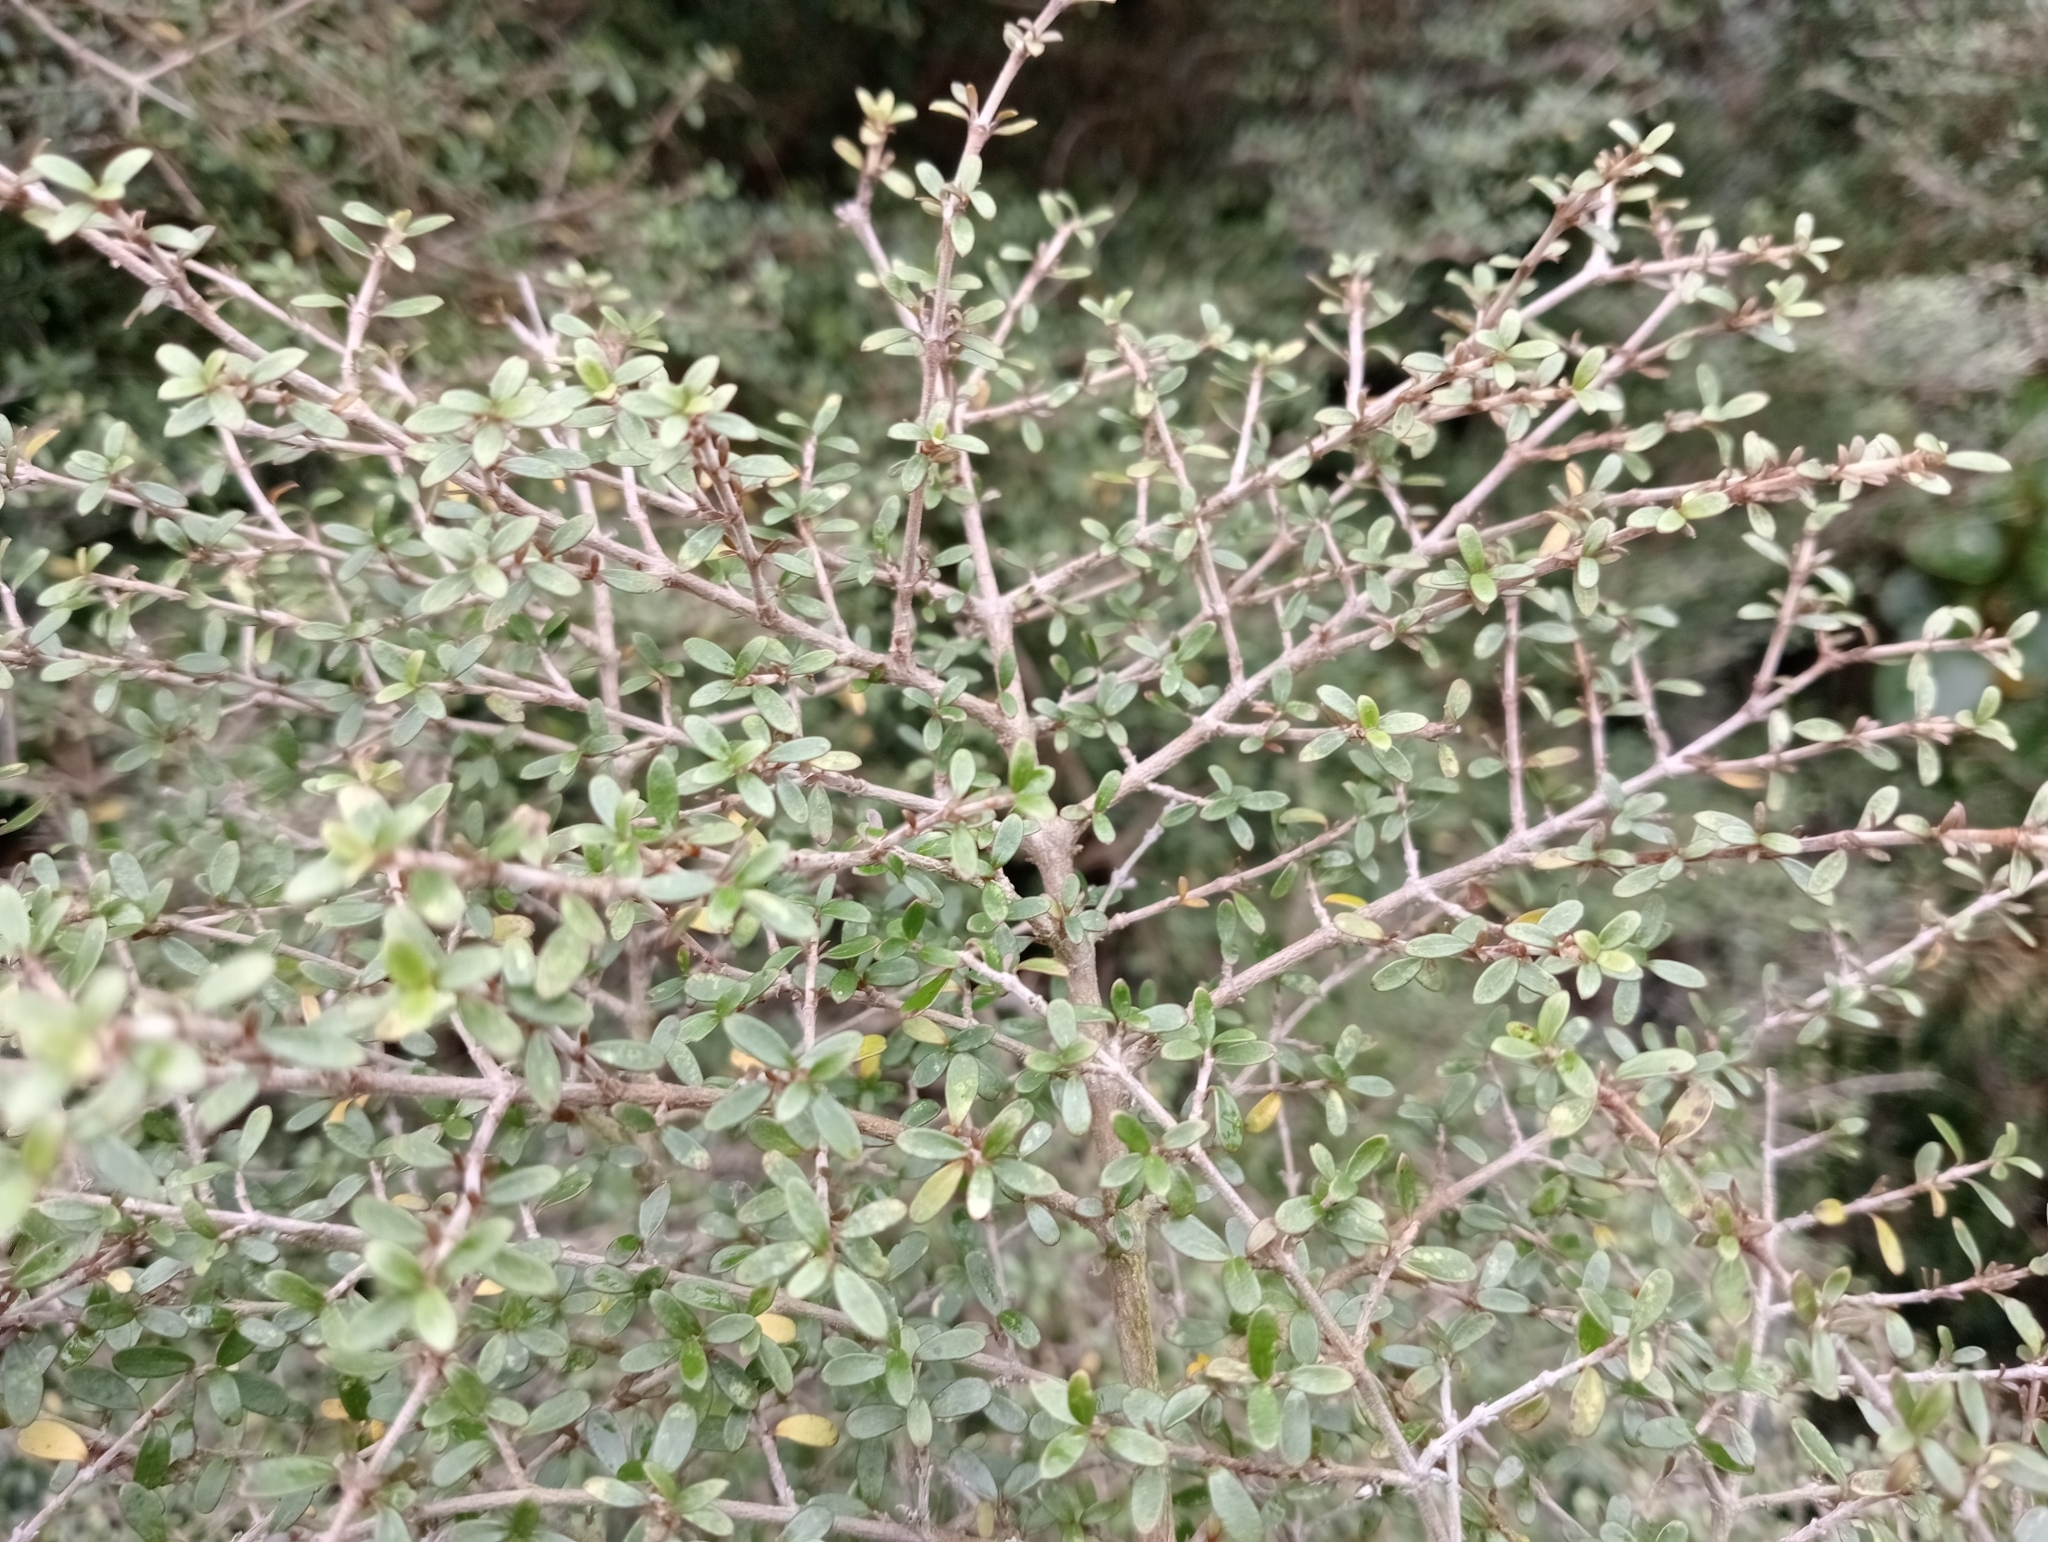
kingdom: Plantae
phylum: Tracheophyta
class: Magnoliopsida
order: Gentianales
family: Rubiaceae
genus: Coprosma
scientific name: Coprosma dumosa
